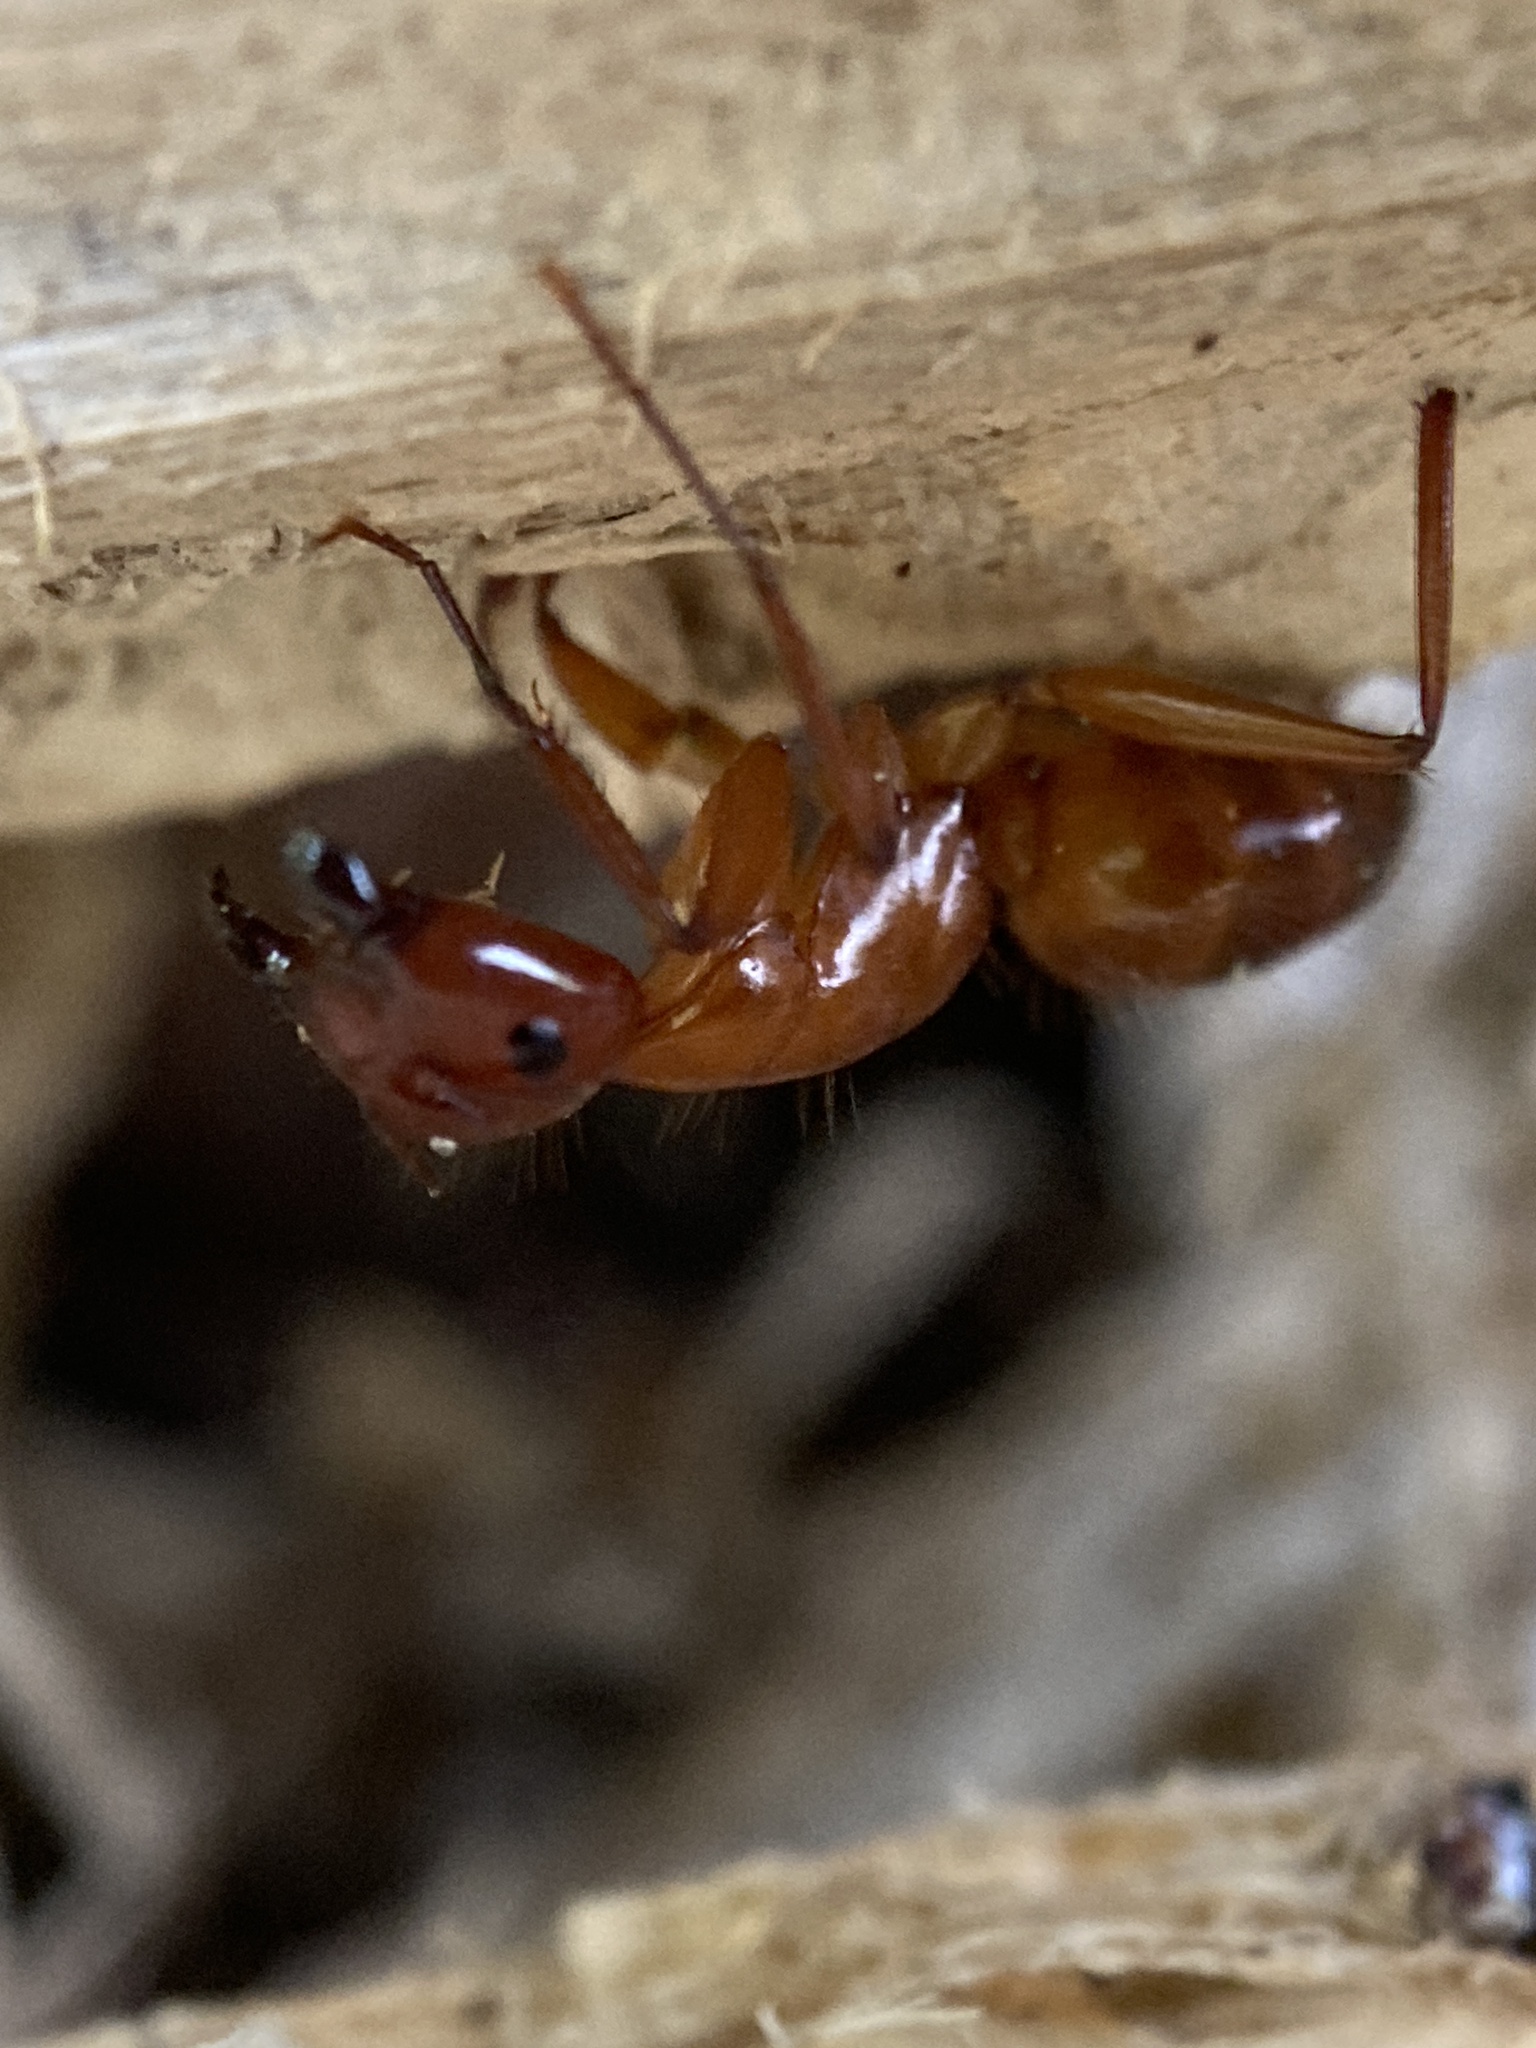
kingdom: Animalia
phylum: Arthropoda
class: Insecta
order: Hymenoptera
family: Formicidae
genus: Camponotus
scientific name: Camponotus castaneus
